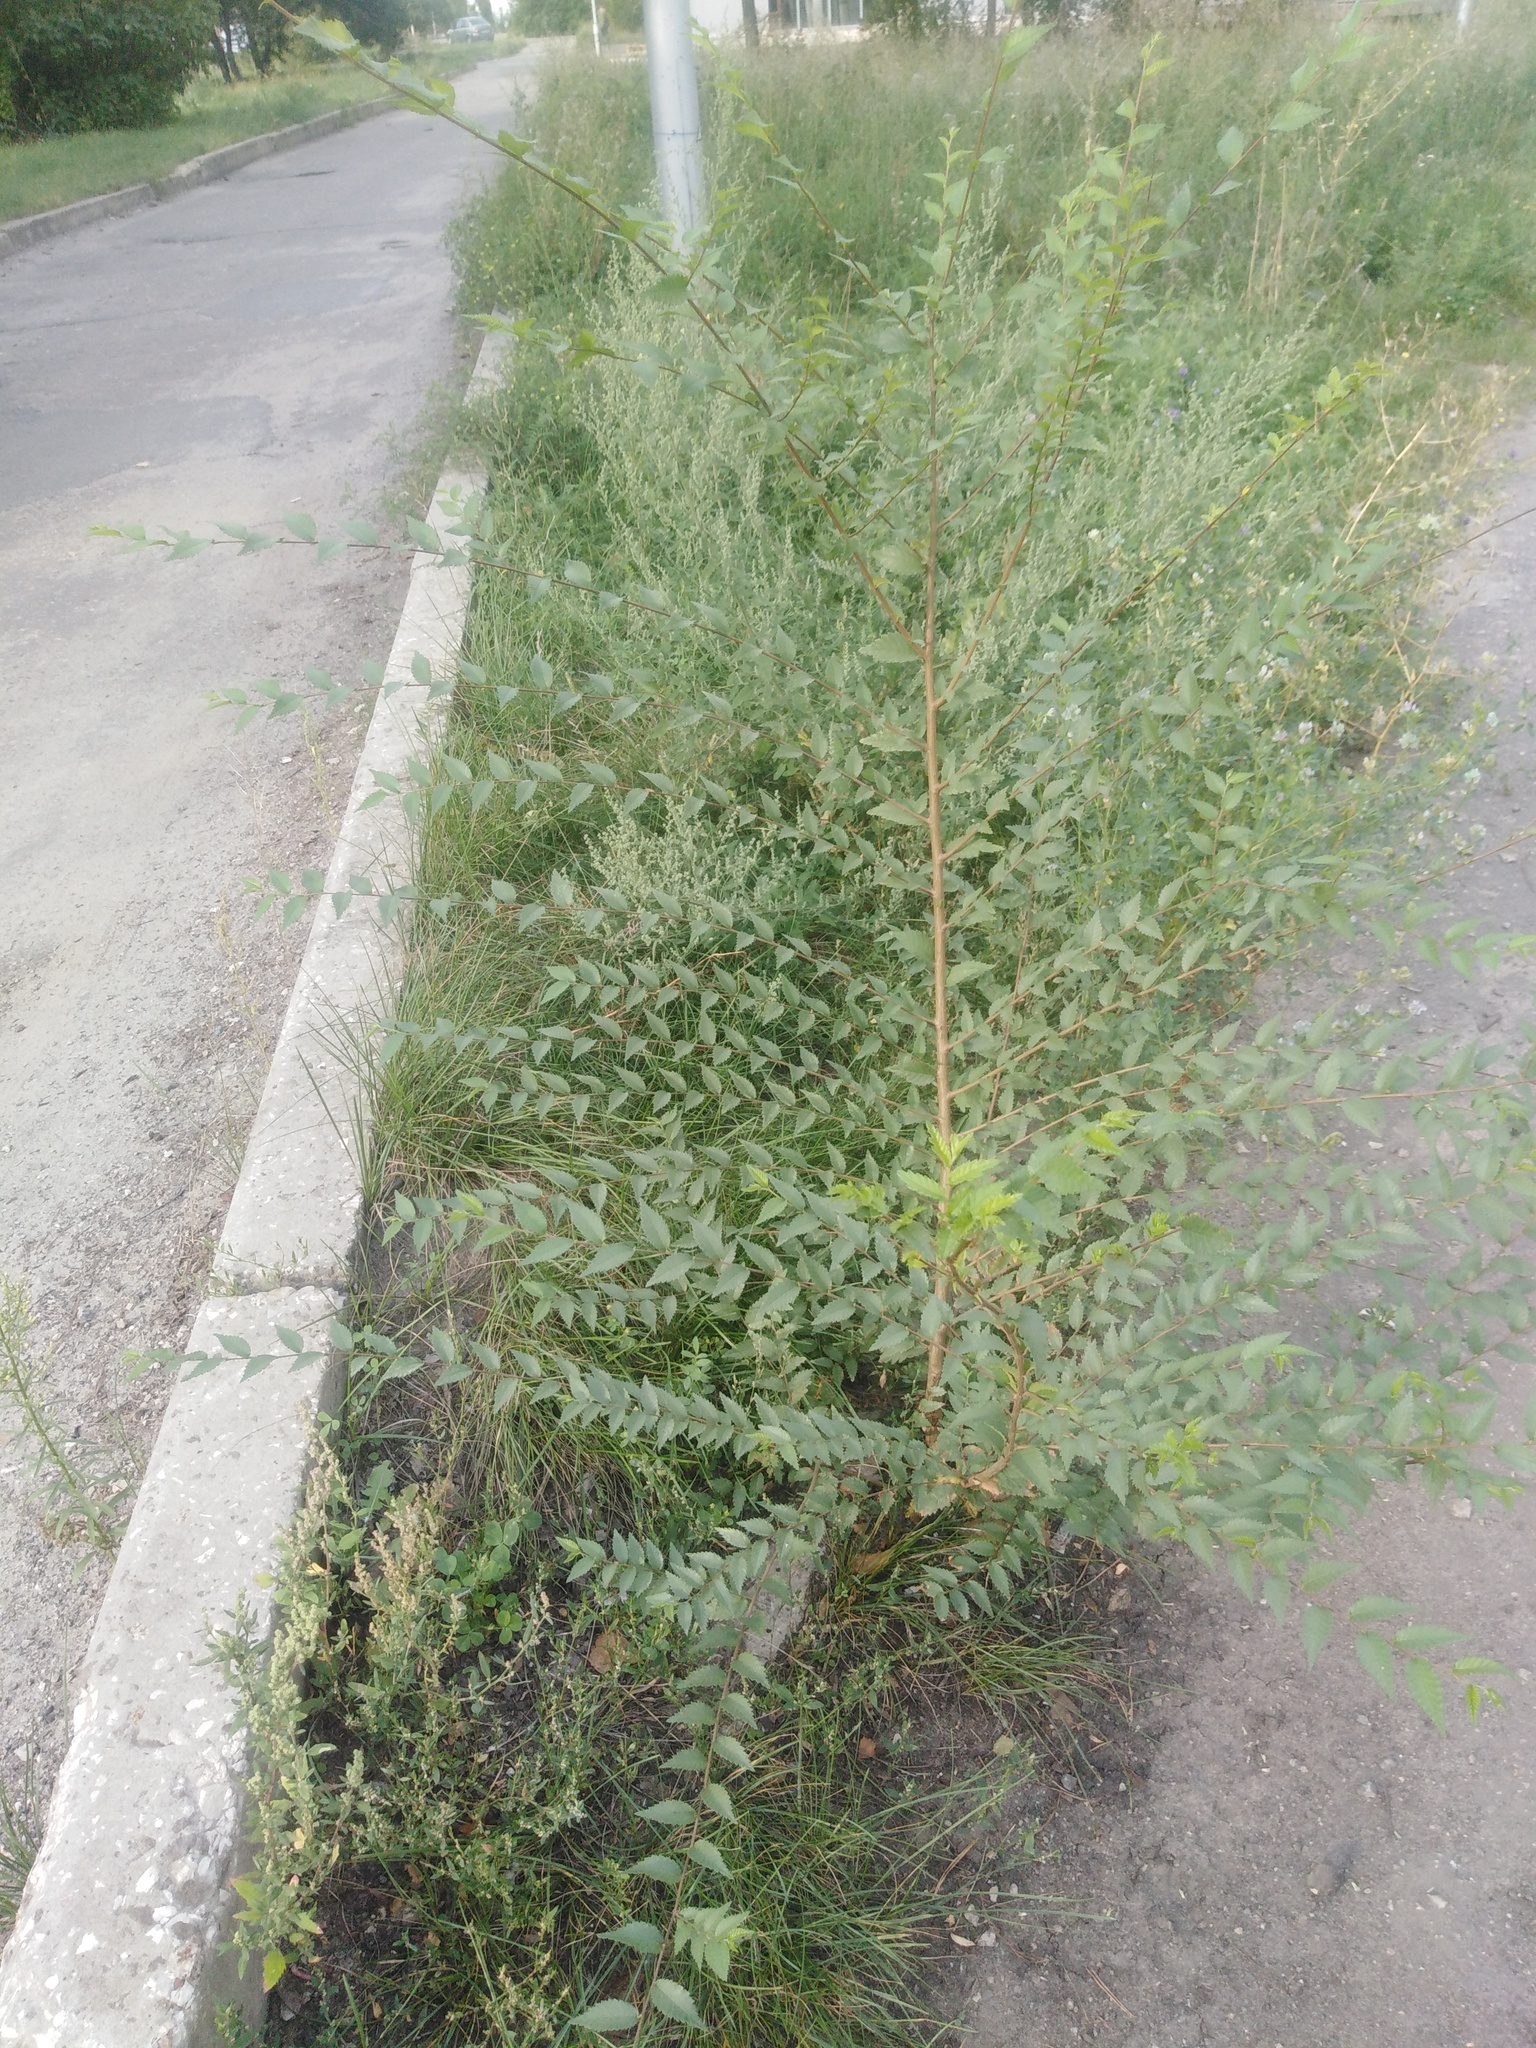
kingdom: Plantae
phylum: Tracheophyta
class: Magnoliopsida
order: Rosales
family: Ulmaceae
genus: Ulmus
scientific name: Ulmus pumila
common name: Siberian elm
